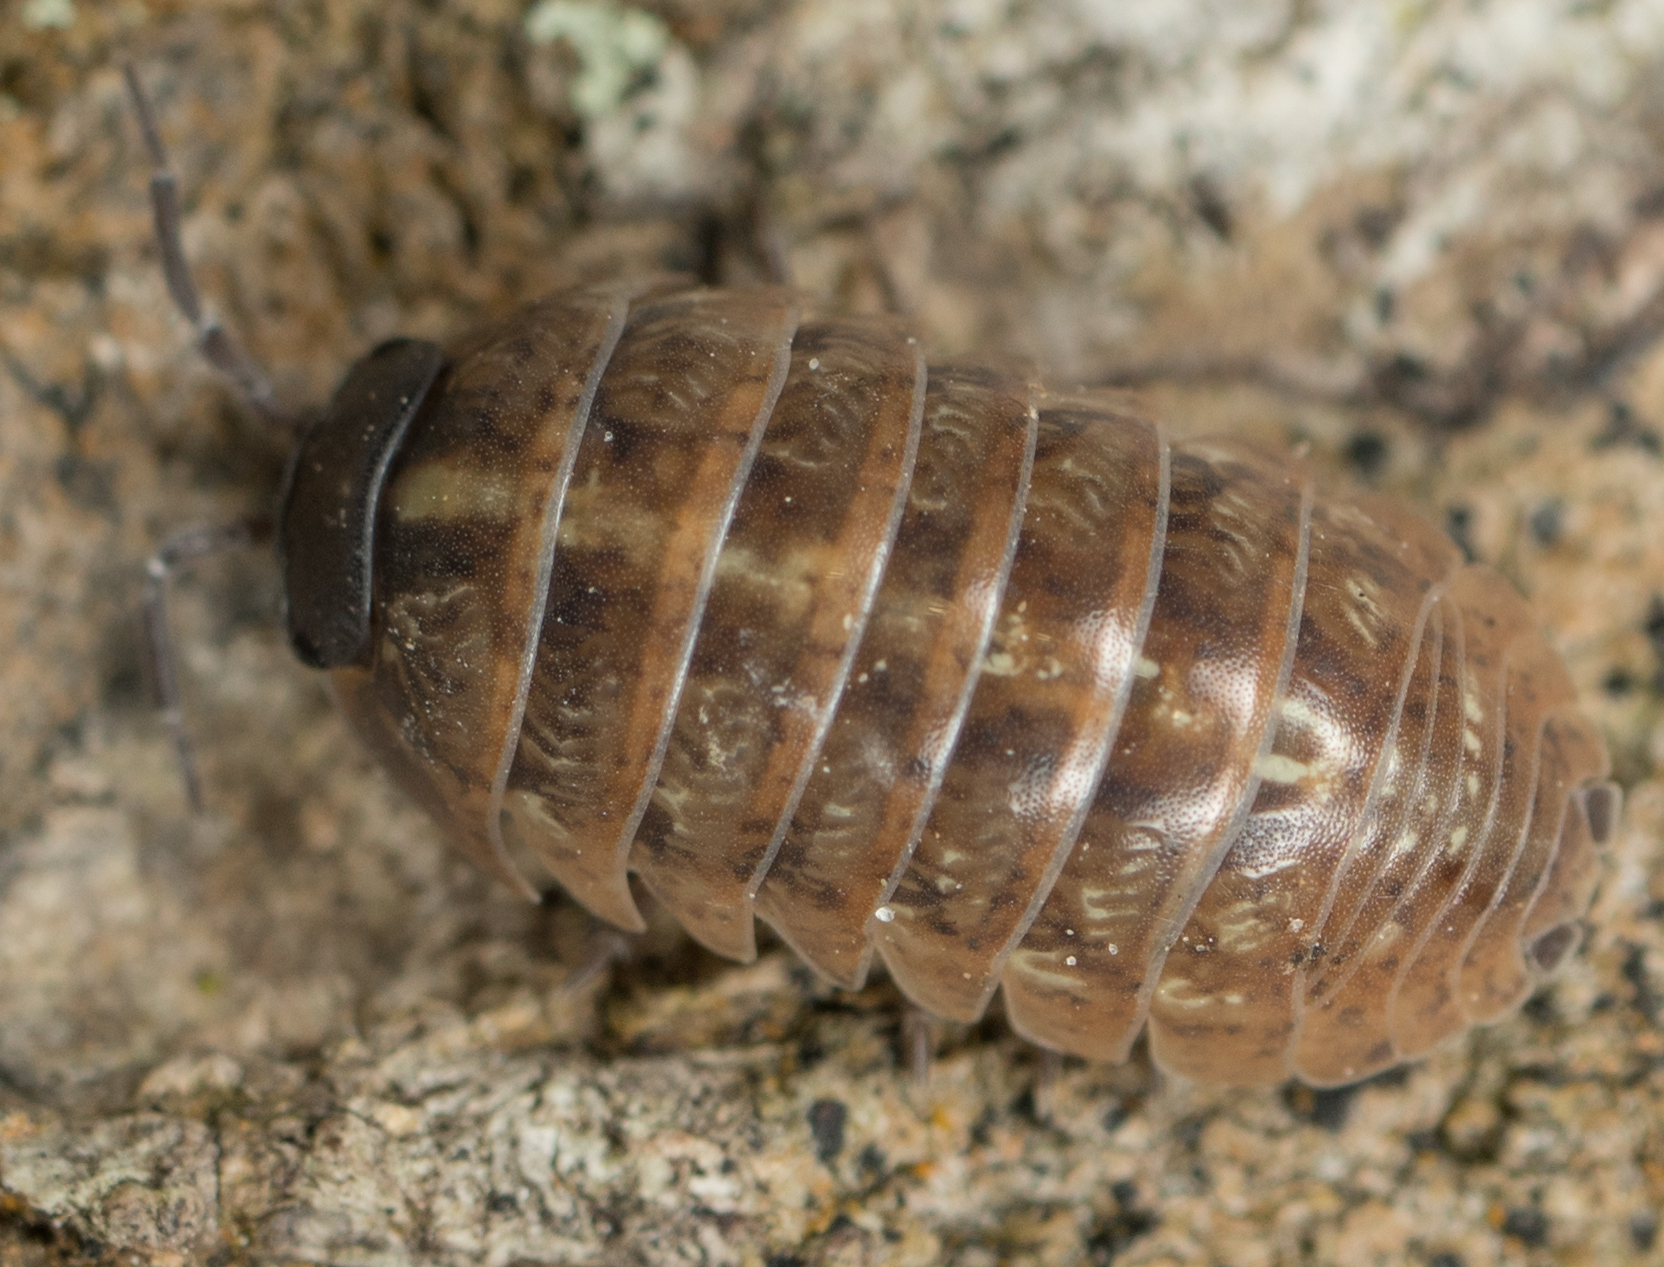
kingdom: Animalia
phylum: Arthropoda
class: Malacostraca
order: Isopoda
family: Armadillidiidae
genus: Armadillidium
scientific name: Armadillidium vulgare
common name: Common pill woodlouse
